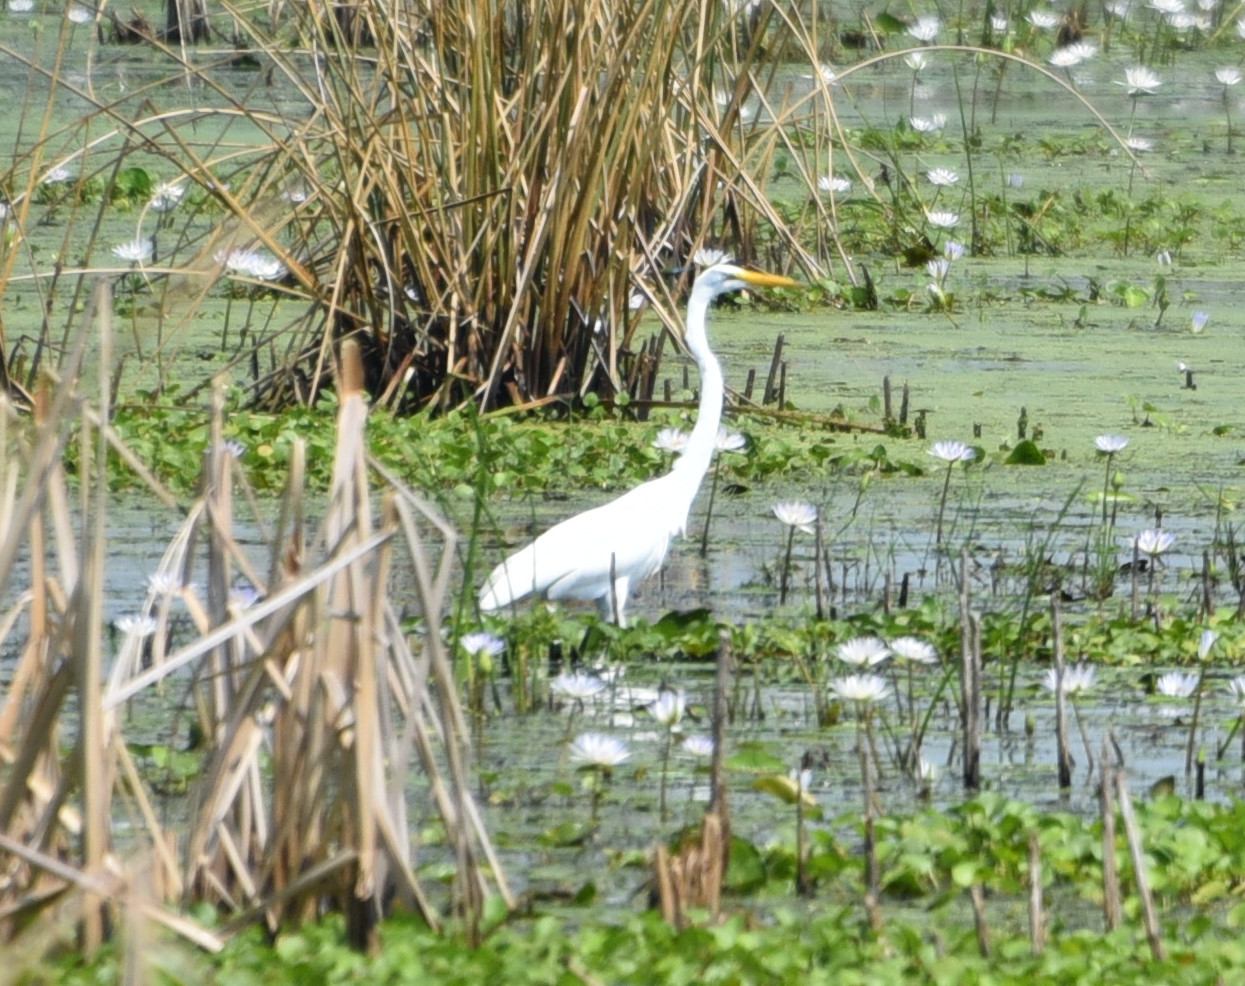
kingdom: Animalia
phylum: Chordata
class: Aves
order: Pelecaniformes
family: Ardeidae
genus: Ardea
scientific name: Ardea alba
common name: Great egret
